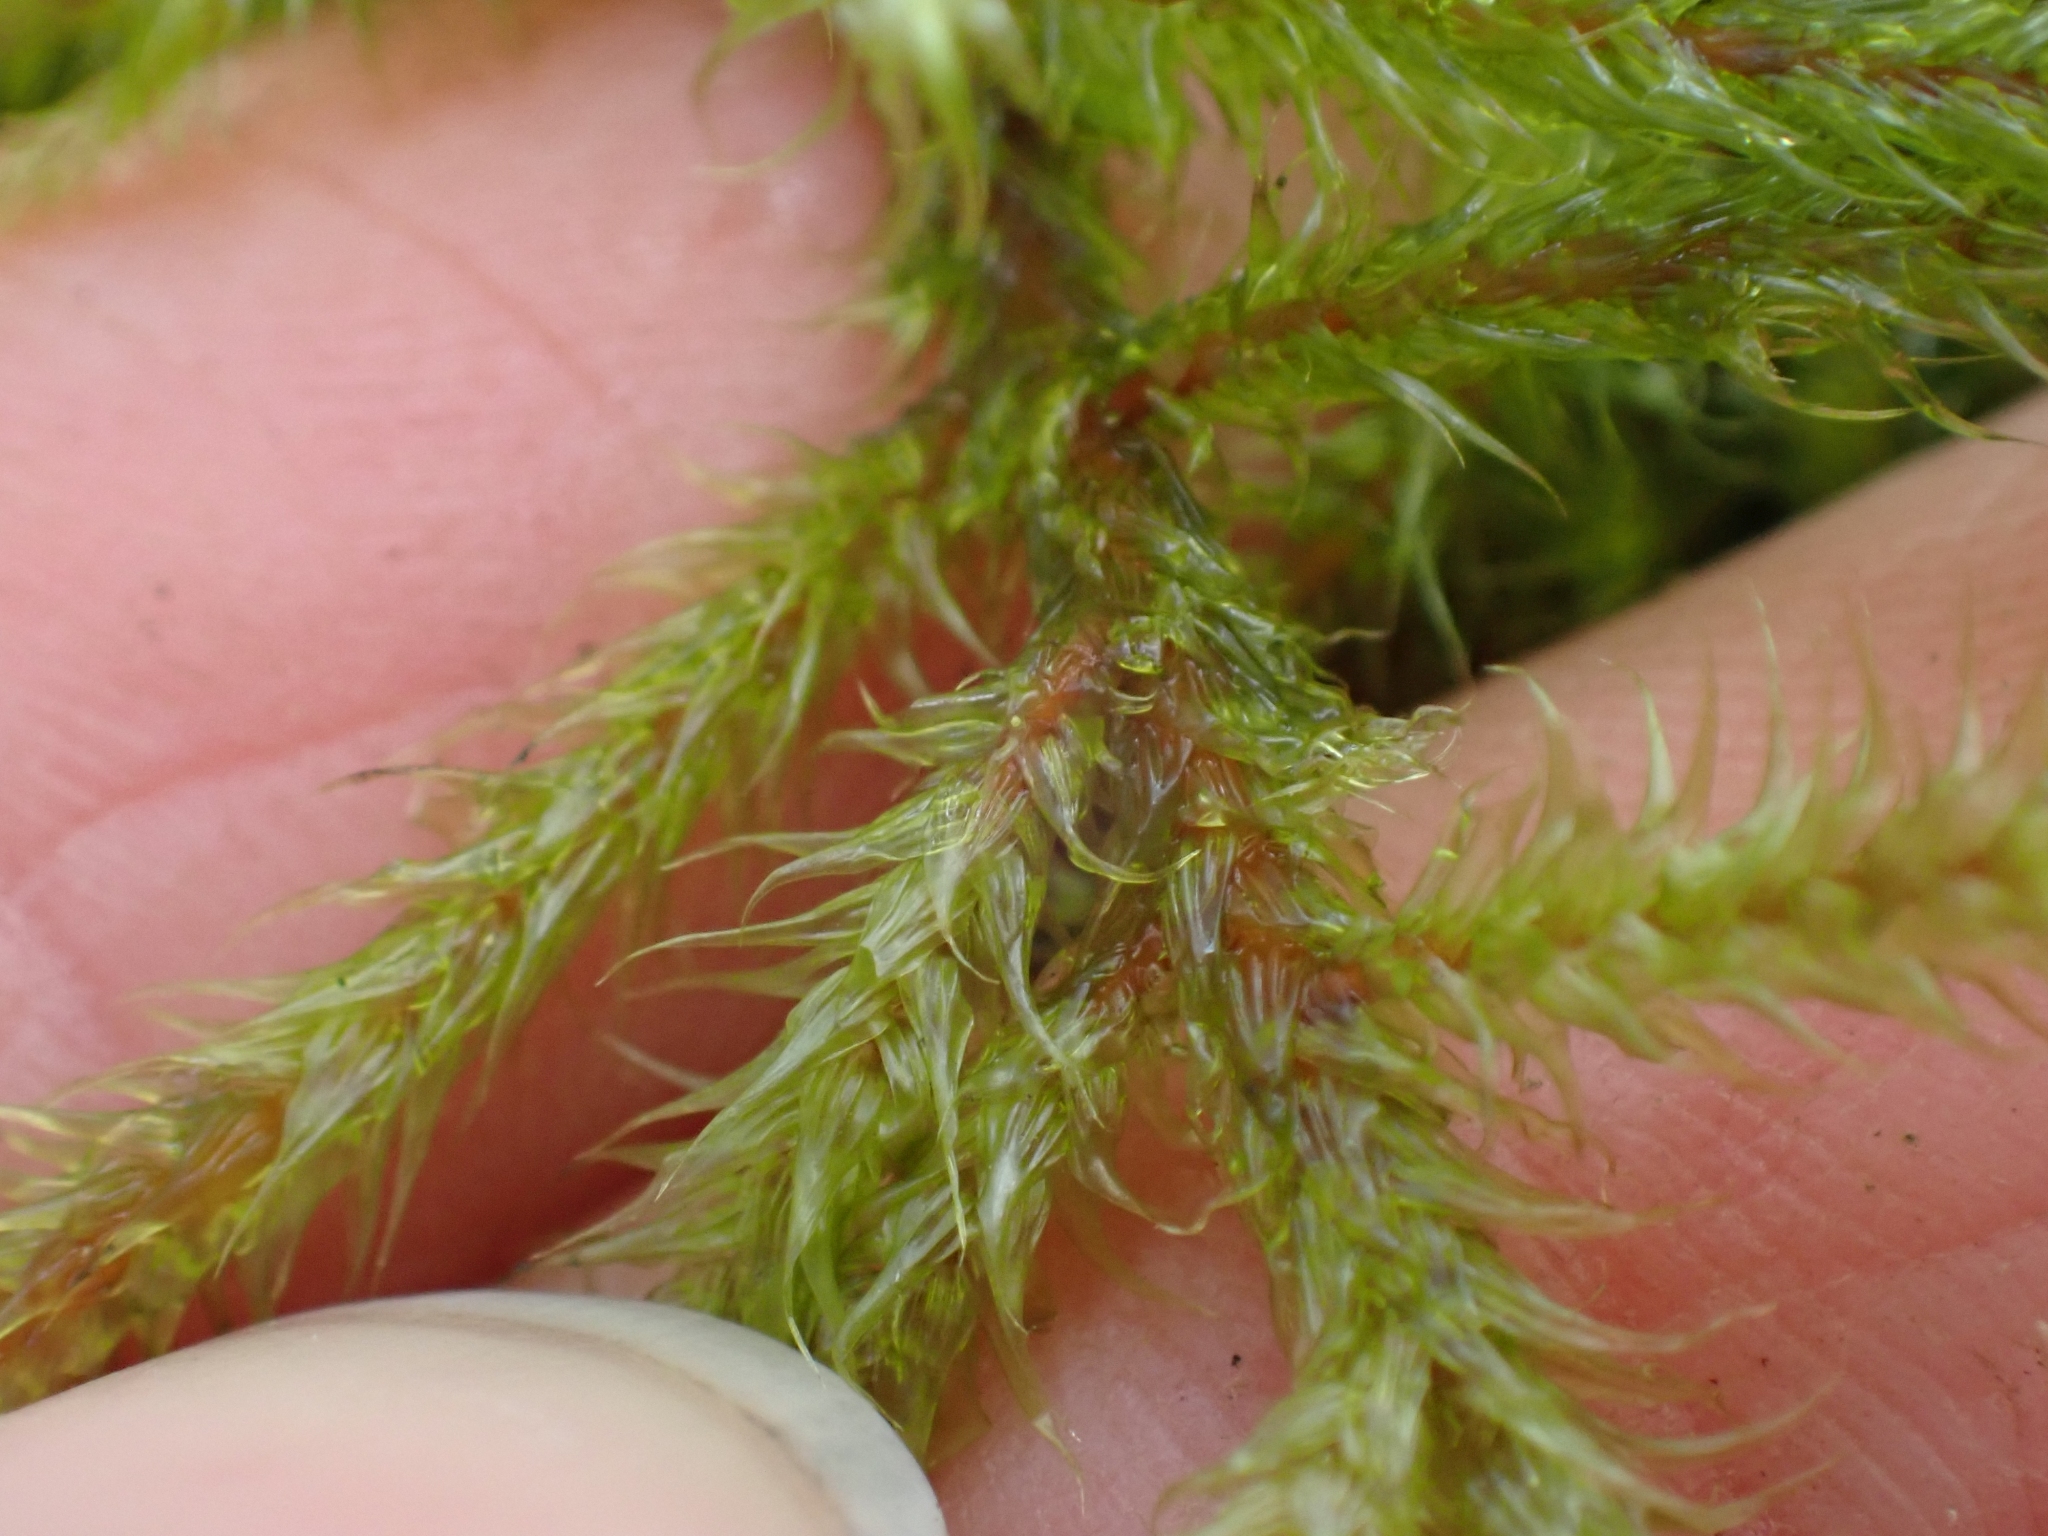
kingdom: Plantae
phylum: Bryophyta
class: Bryopsida
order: Hypnales
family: Hylocomiaceae
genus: Rhytidiadelphus
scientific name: Rhytidiadelphus loreus
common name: Lanky moss
